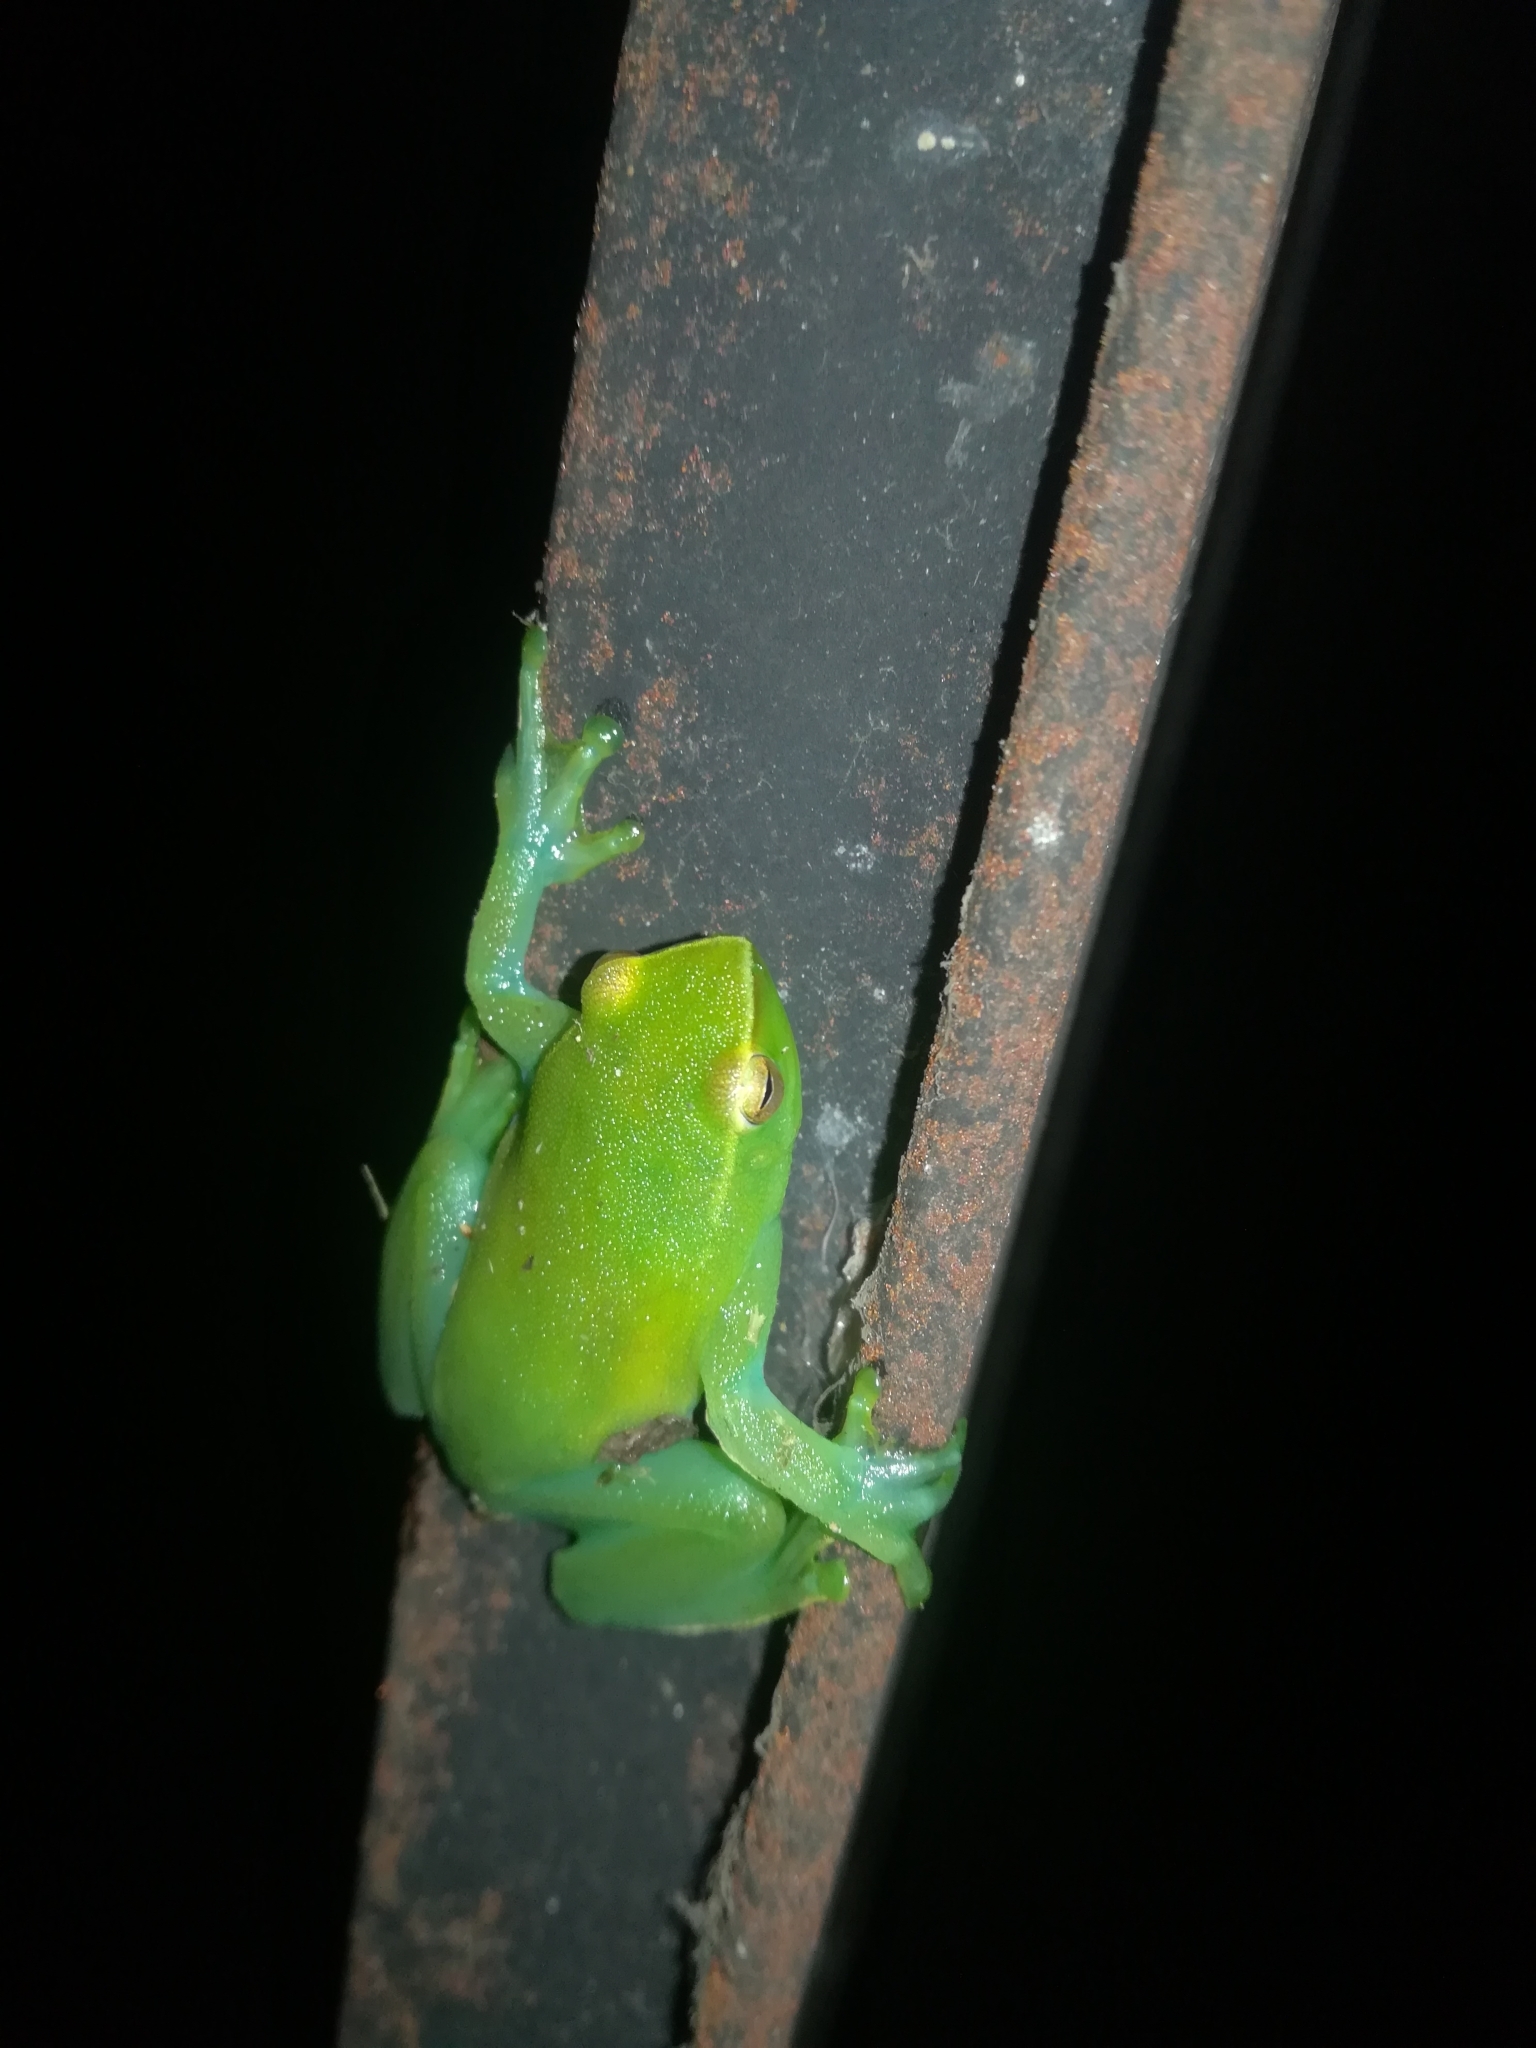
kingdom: Animalia
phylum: Chordata
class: Amphibia
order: Anura
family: Hylidae
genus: Sphaenorhynchus
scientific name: Sphaenorhynchus lacteus
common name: Orinoco lime treefrog
